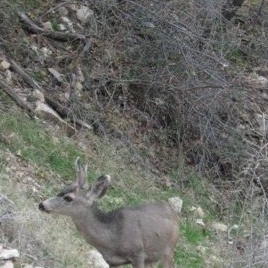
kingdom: Animalia
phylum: Chordata
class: Mammalia
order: Artiodactyla
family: Cervidae
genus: Odocoileus
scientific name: Odocoileus hemionus
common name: Mule deer
